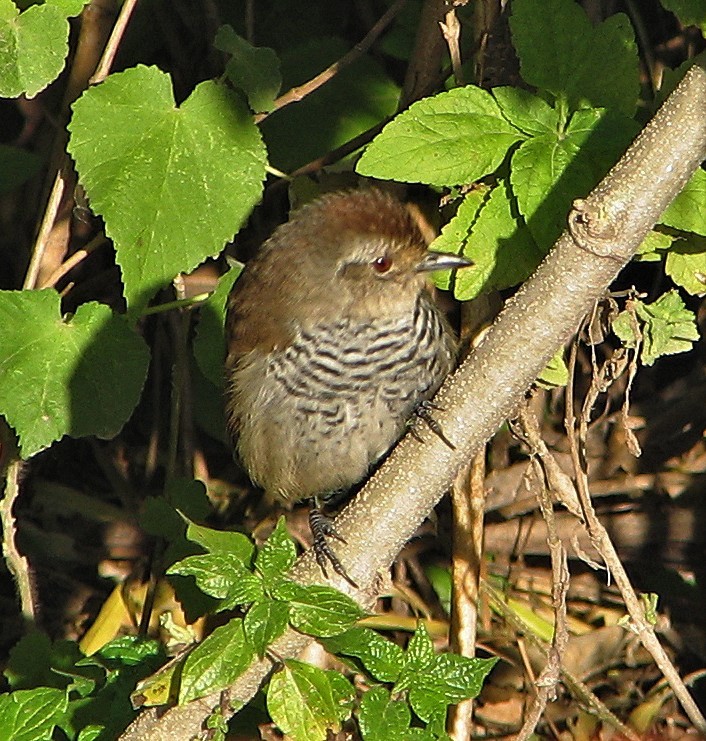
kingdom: Animalia
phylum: Chordata
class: Aves
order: Passeriformes
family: Thamnophilidae
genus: Thamnophilus
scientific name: Thamnophilus ruficapillus
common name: Rufous-capped antshrike
